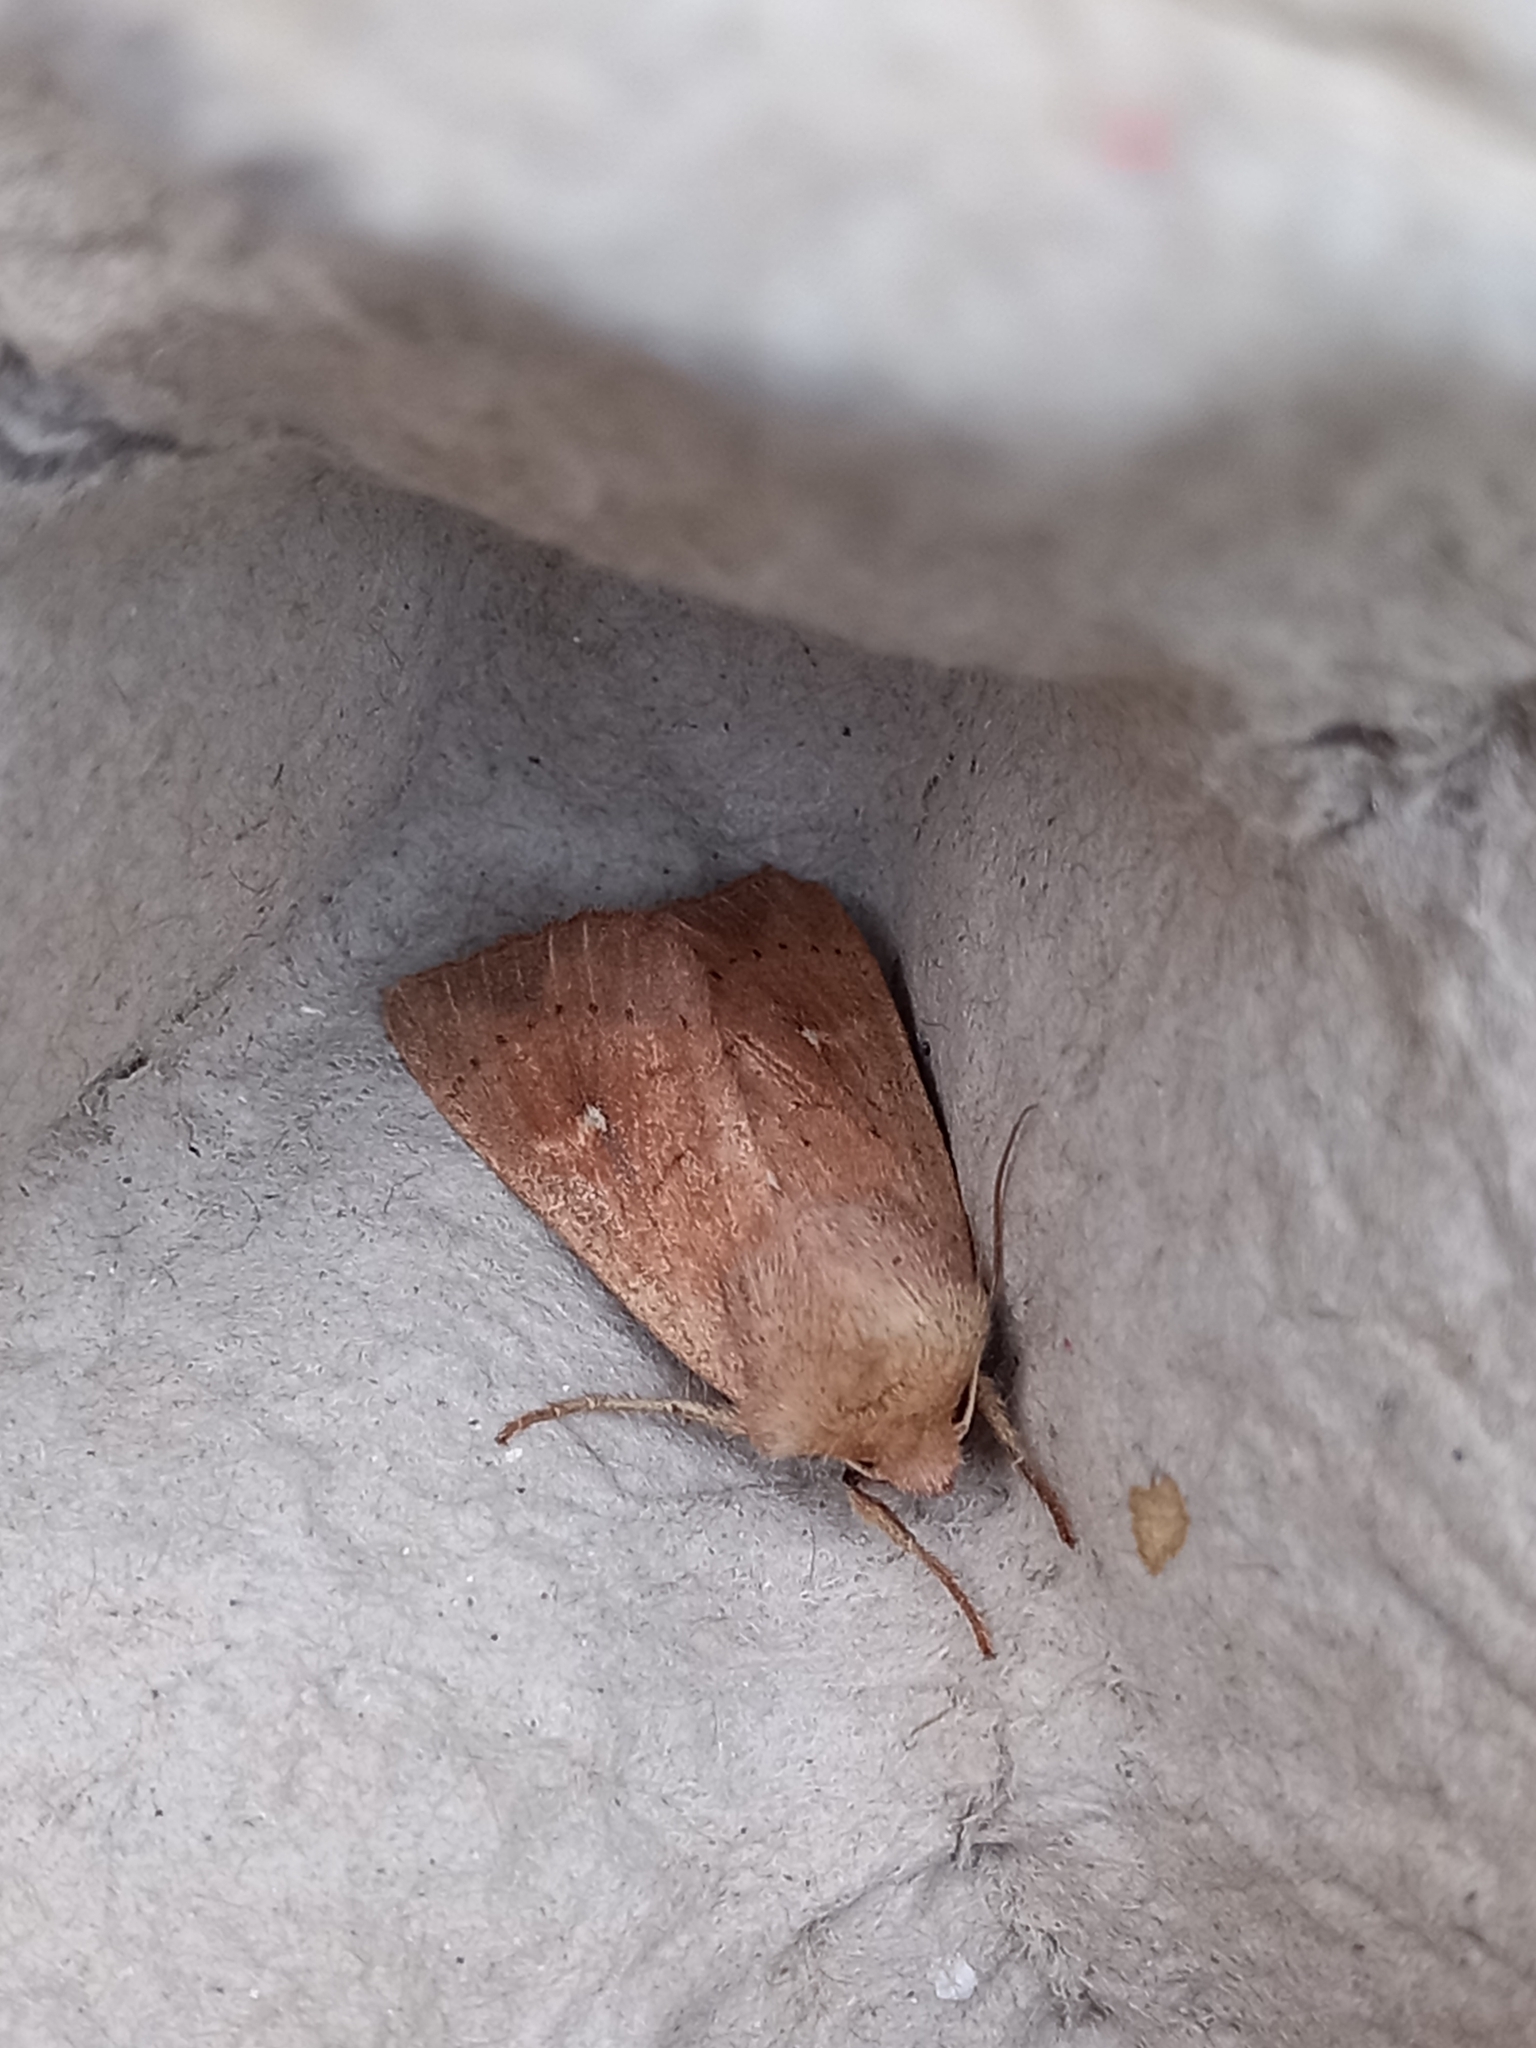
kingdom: Animalia
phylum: Arthropoda
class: Insecta
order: Lepidoptera
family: Noctuidae
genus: Mythimna
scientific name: Mythimna ferrago
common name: Clay
